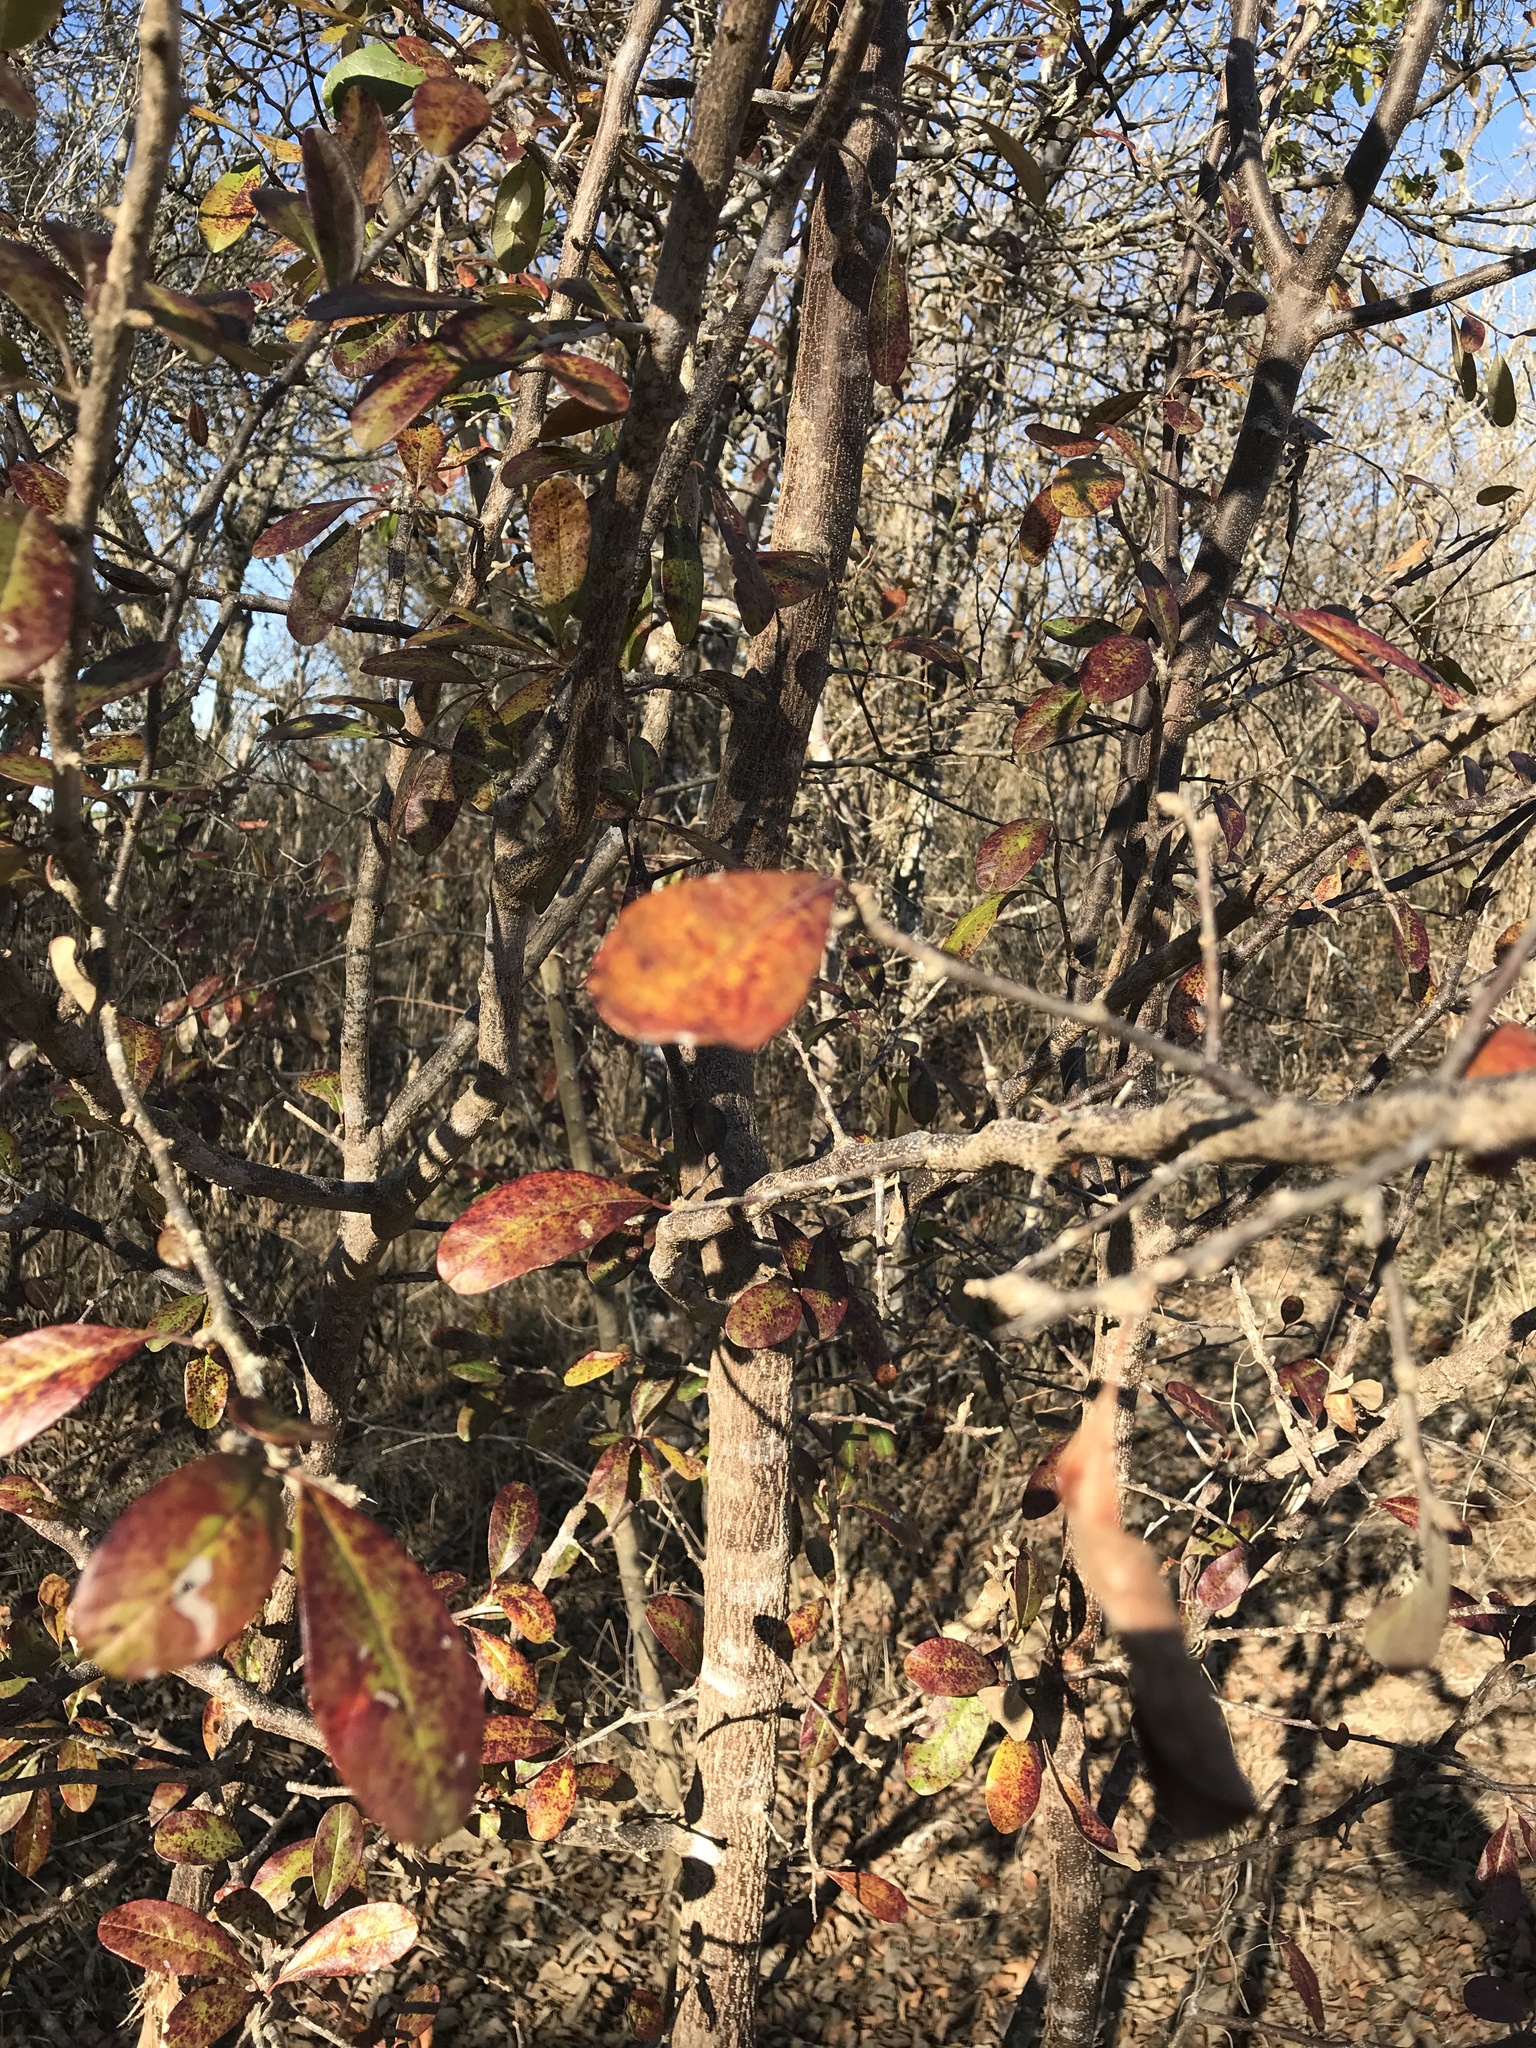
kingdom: Plantae
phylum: Tracheophyta
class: Magnoliopsida
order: Ericales
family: Sapotaceae
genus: Sideroxylon
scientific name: Sideroxylon lanuginosum
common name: Chittamwood
